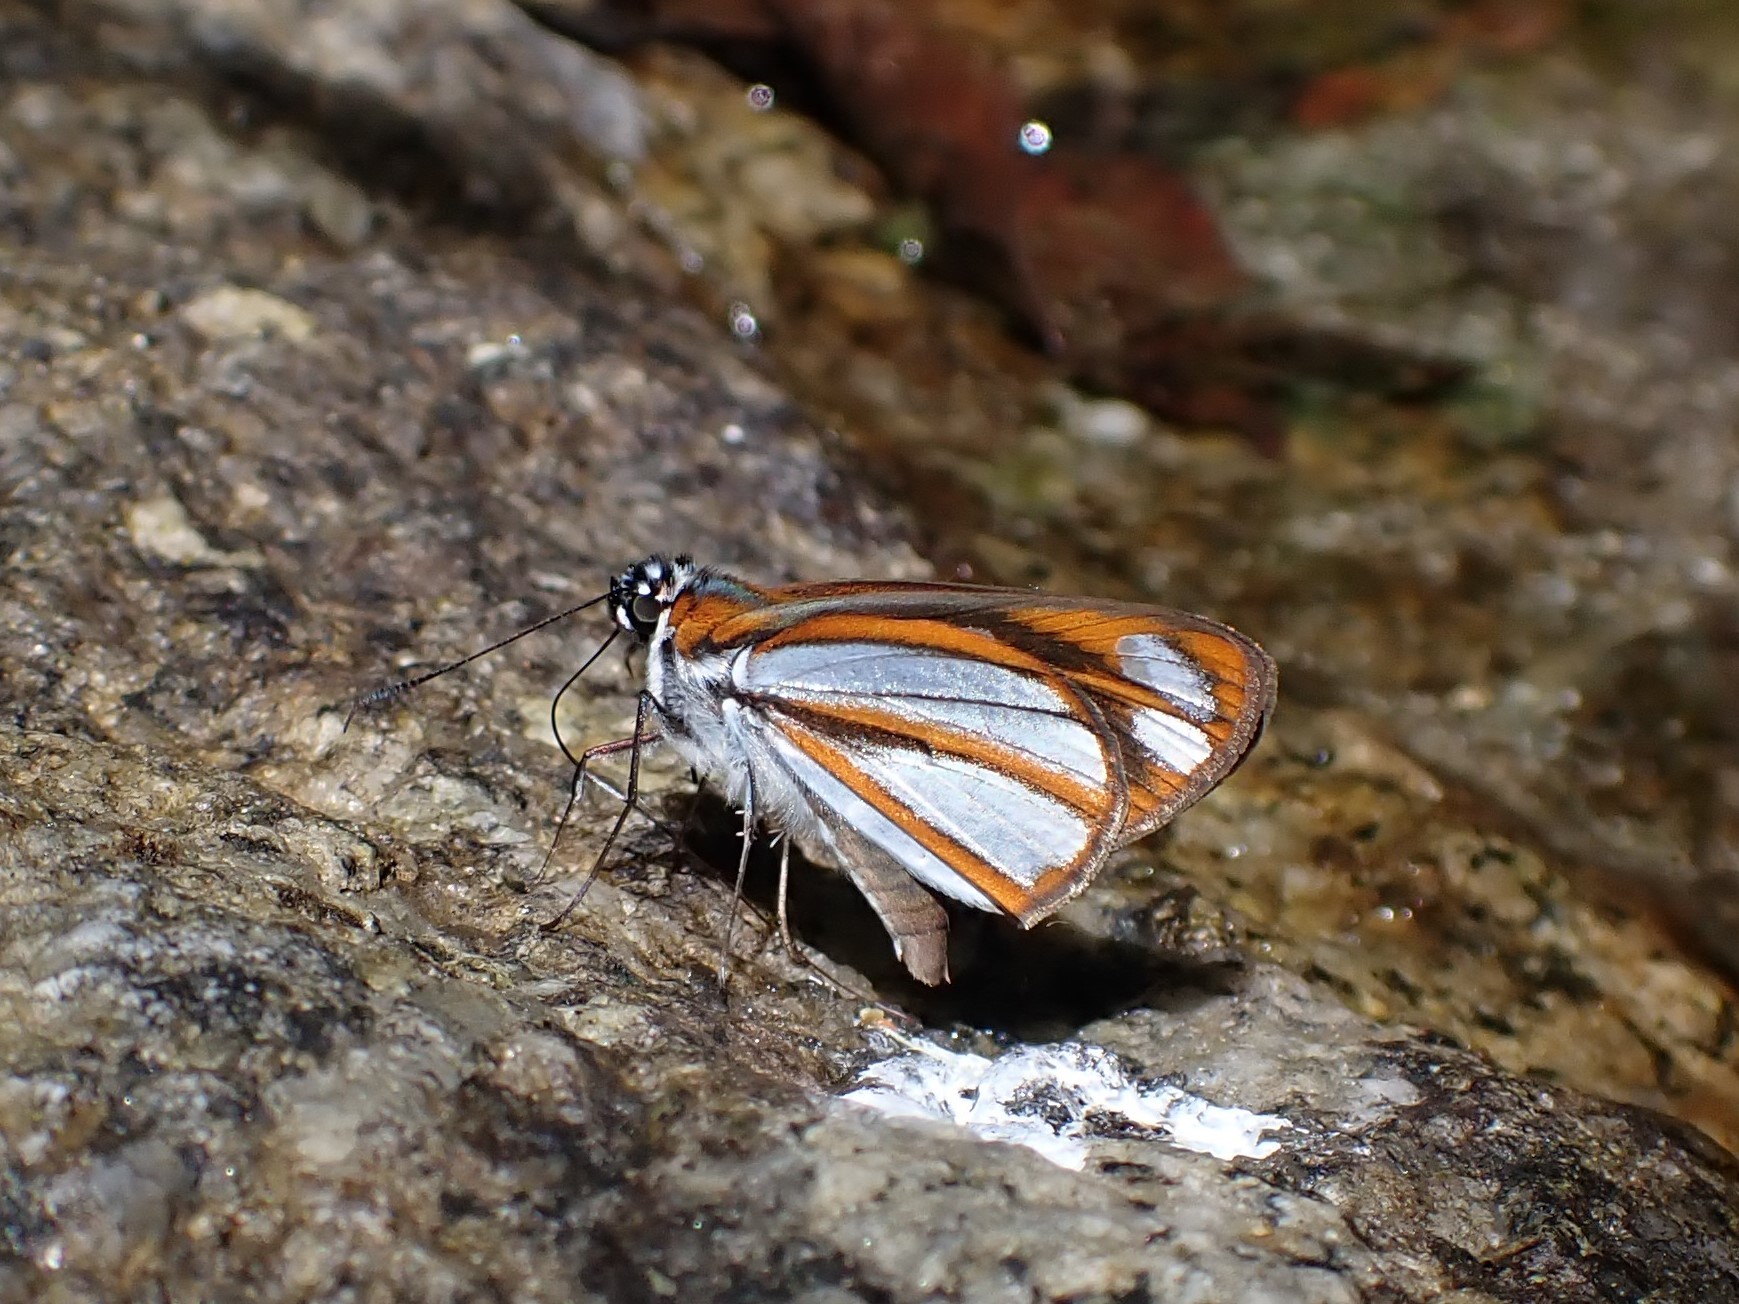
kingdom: Animalia
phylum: Arthropoda
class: Insecta
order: Lepidoptera
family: Hesperiidae
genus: Corra
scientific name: Corra
